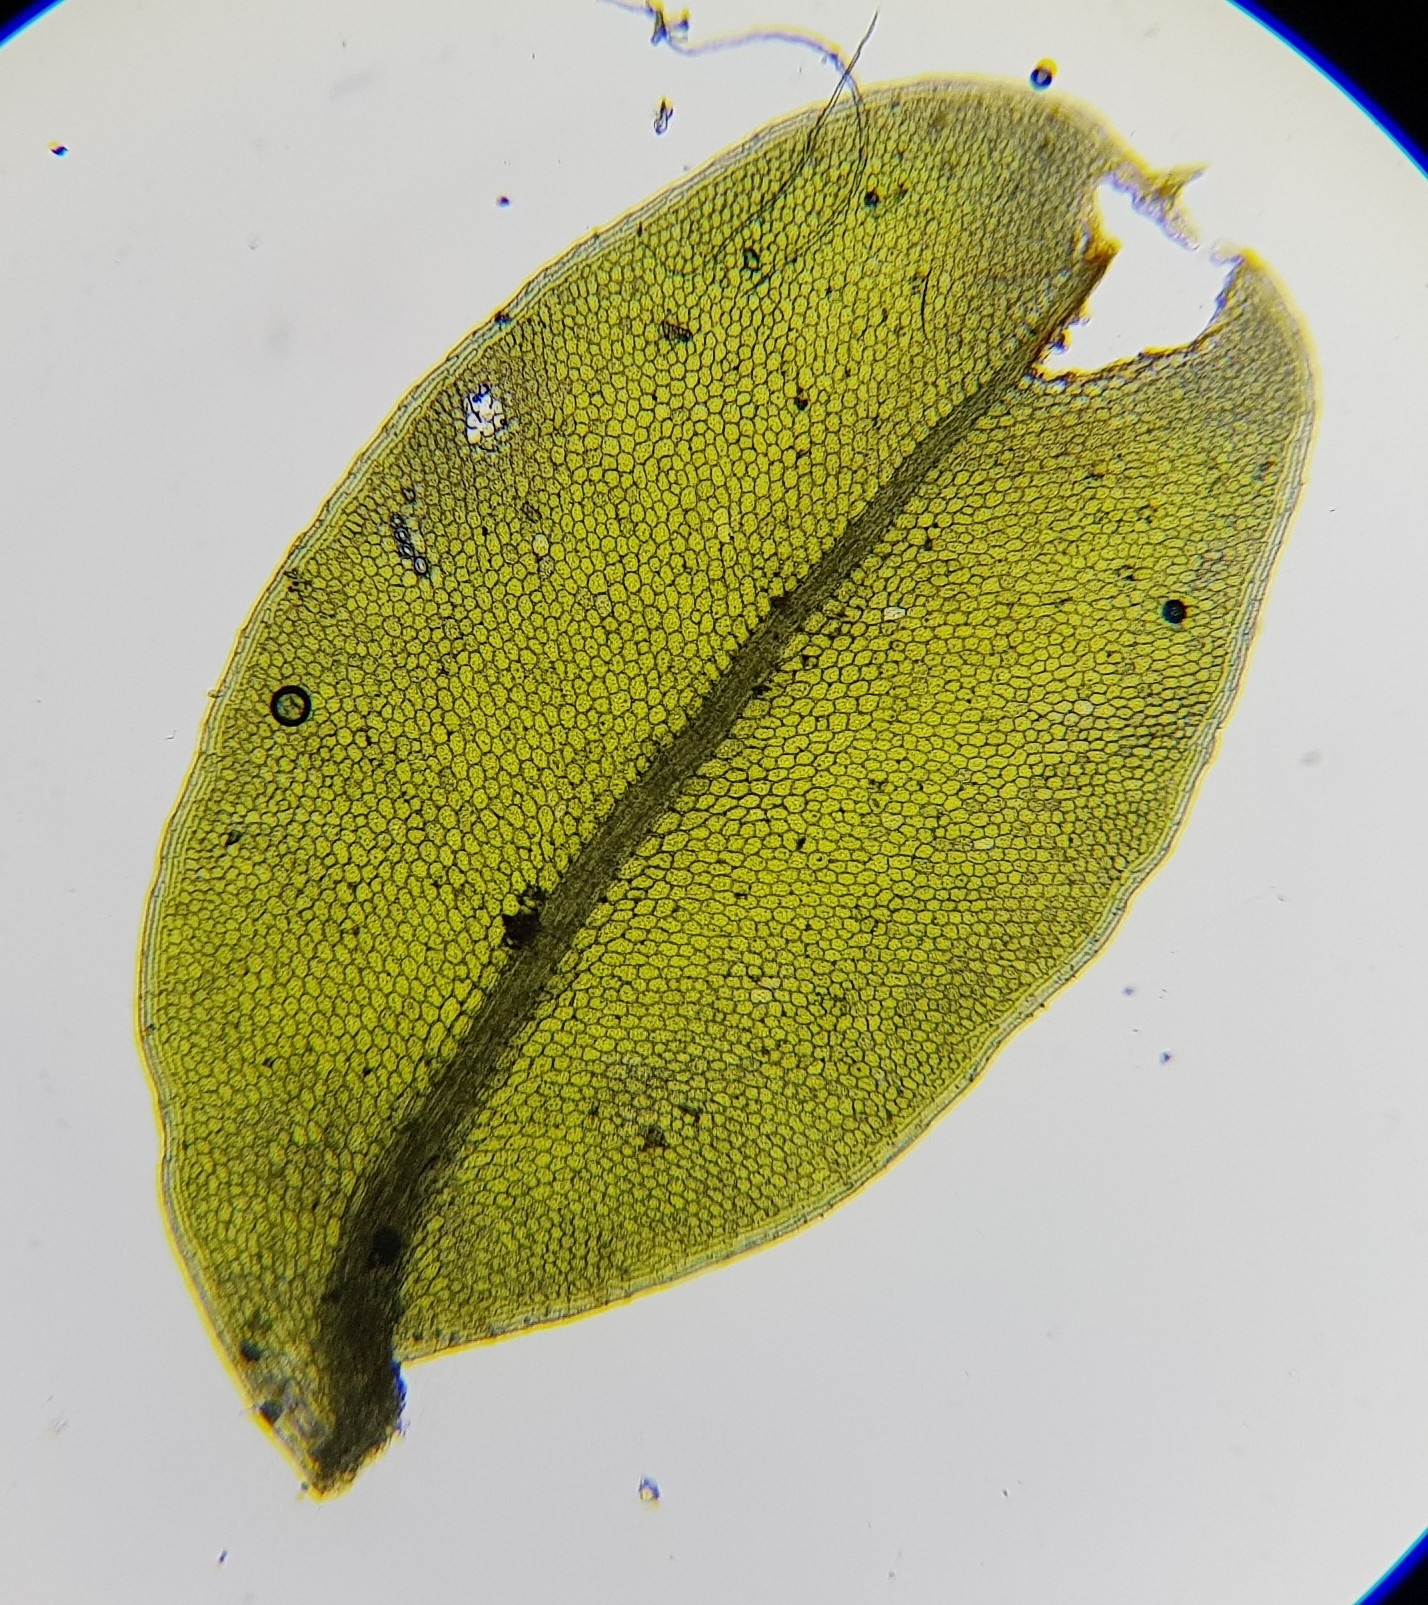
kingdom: Plantae
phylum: Bryophyta
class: Bryopsida
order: Bryales
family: Mniaceae
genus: Plagiomnium
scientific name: Plagiomnium rostratum
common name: Long-beaked leafy moss
